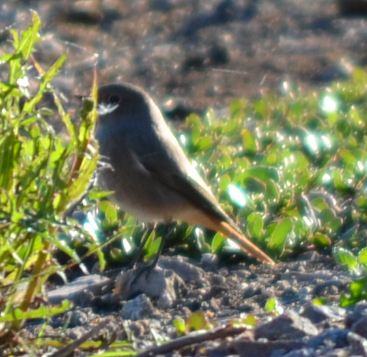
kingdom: Animalia
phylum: Chordata
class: Aves
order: Passeriformes
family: Muscicapidae
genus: Phoenicurus
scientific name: Phoenicurus ochruros
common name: Black redstart
